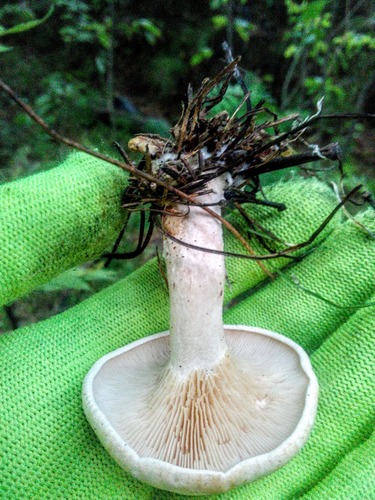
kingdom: Fungi
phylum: Basidiomycota
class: Agaricomycetes
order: Agaricales
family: Entolomataceae
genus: Clitopilus
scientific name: Clitopilus prunulus
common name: The miller
